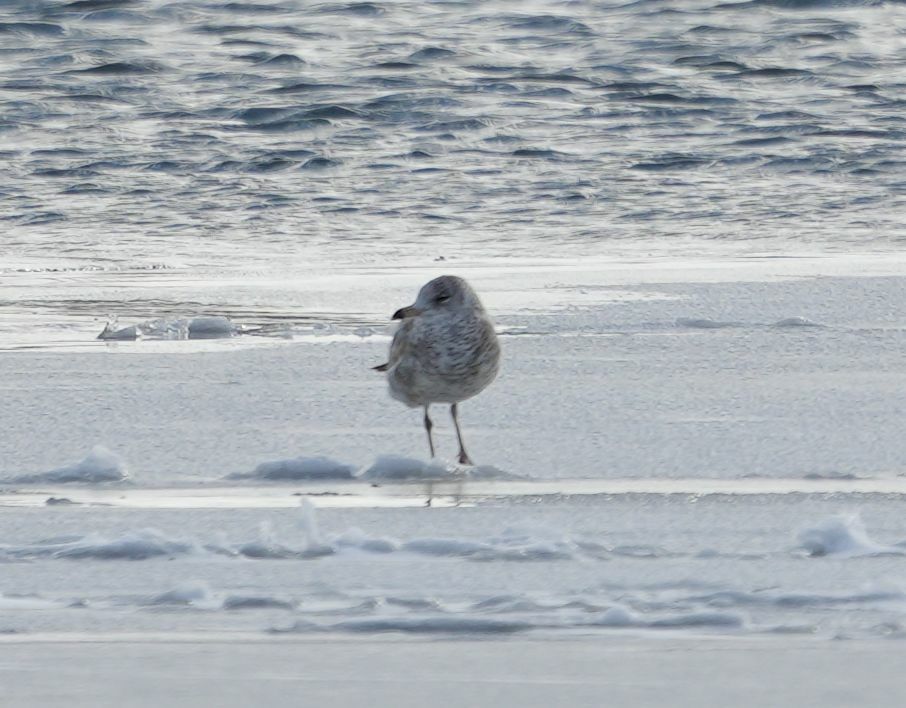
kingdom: Animalia
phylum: Chordata
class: Aves
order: Charadriiformes
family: Laridae
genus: Larus
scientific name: Larus delawarensis
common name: Ring-billed gull
